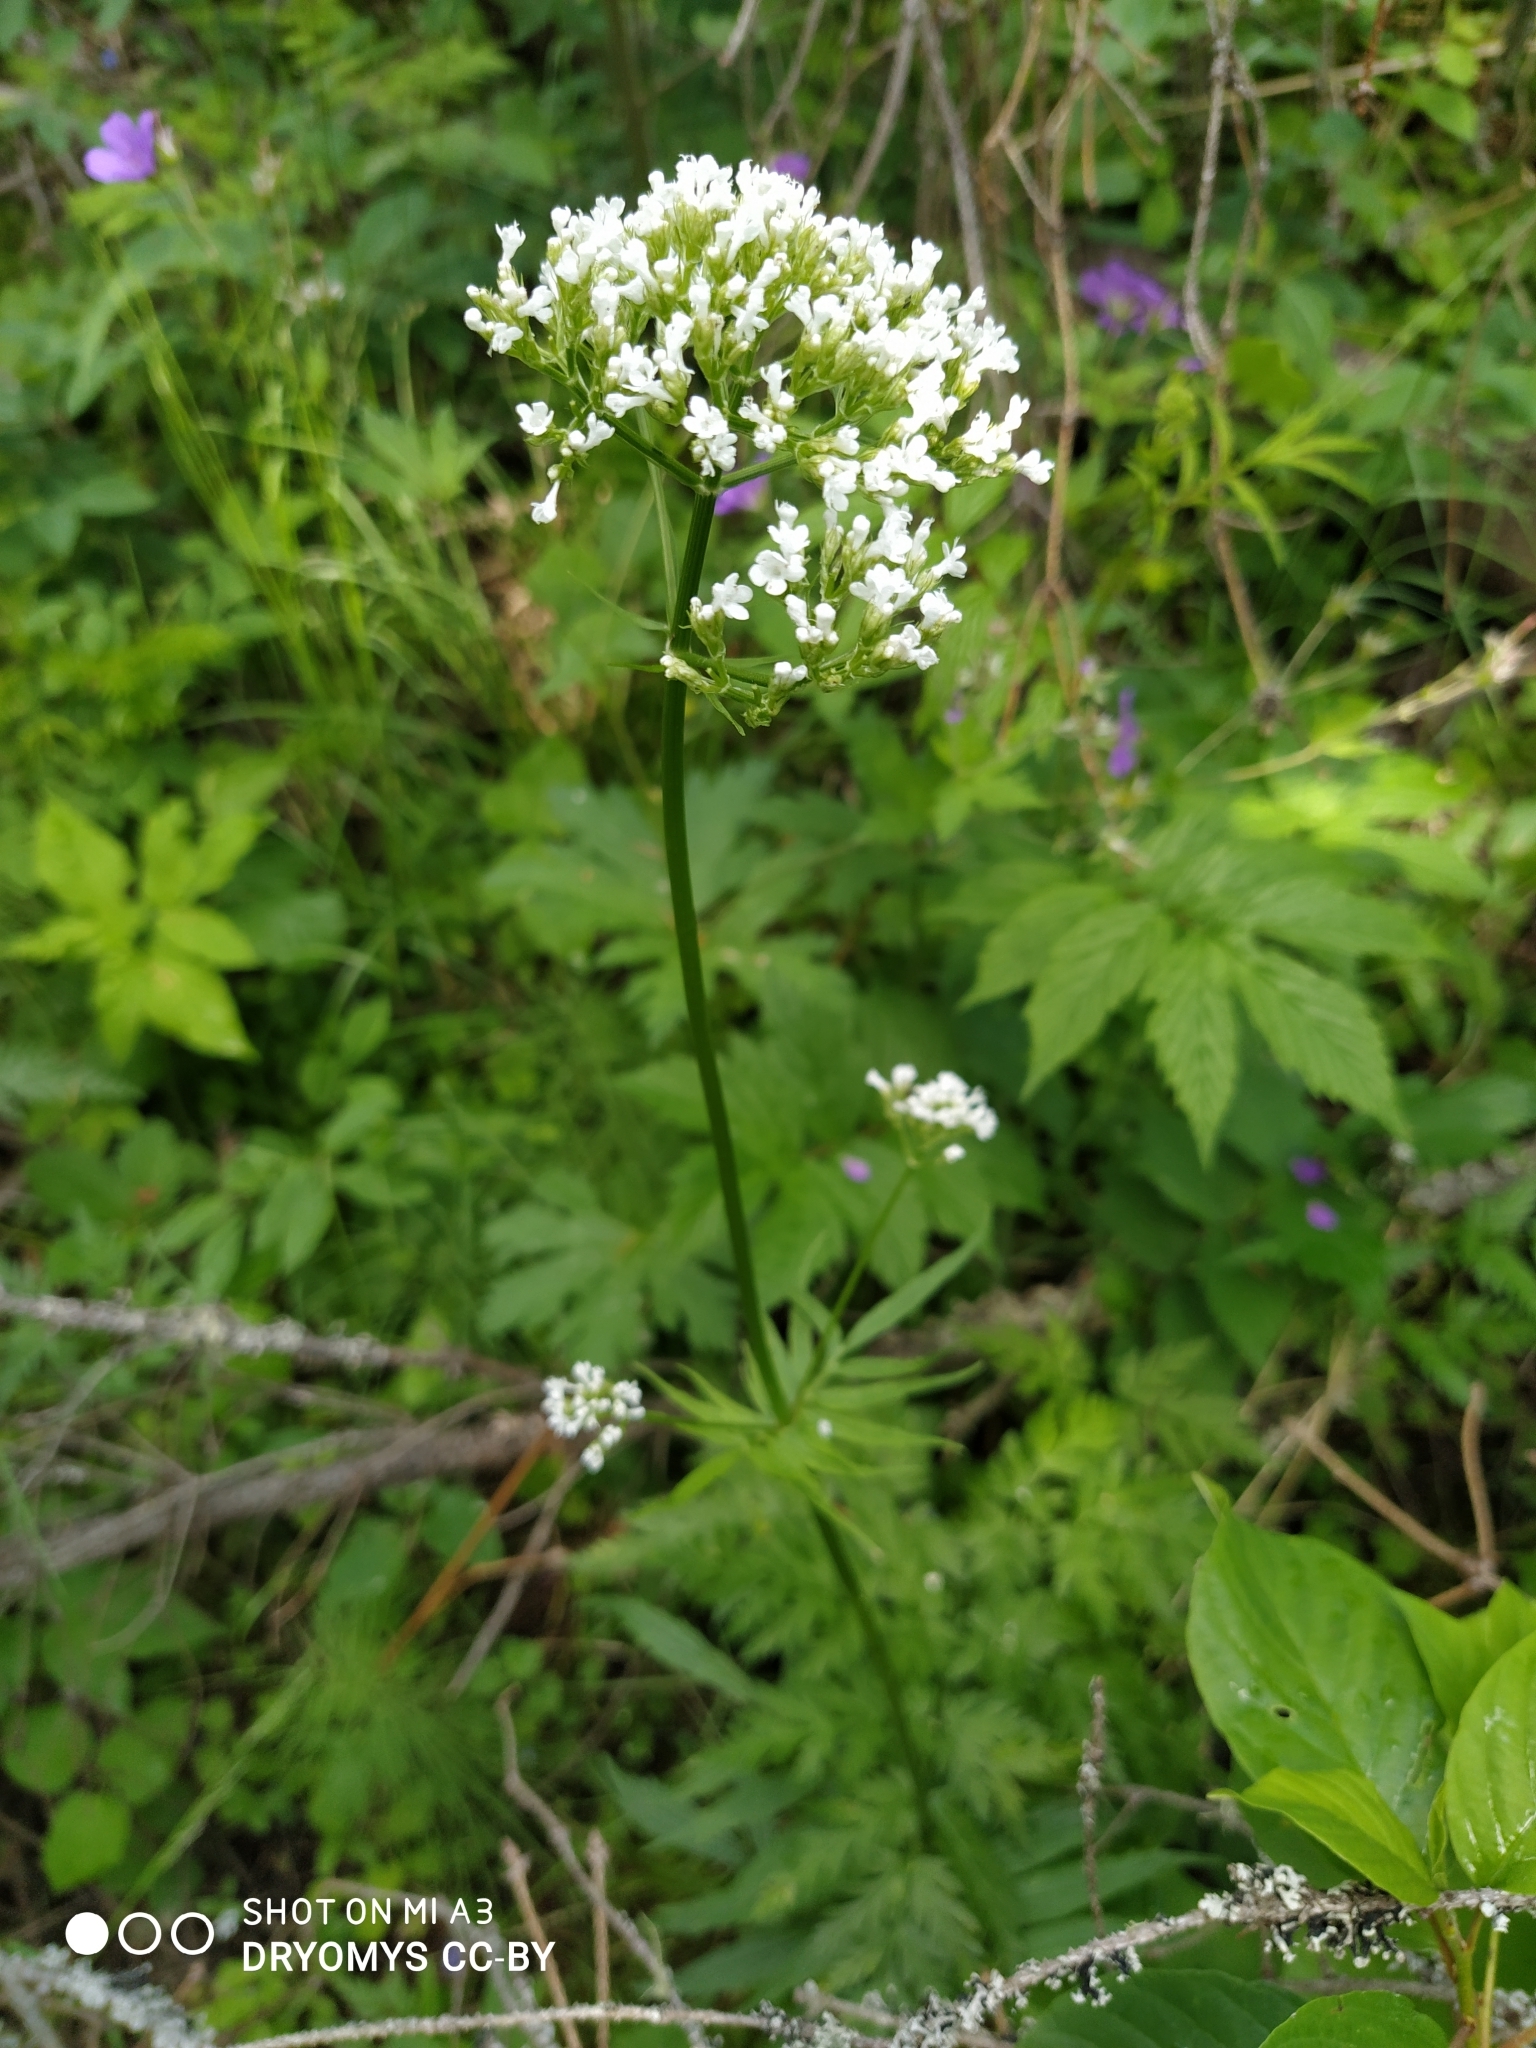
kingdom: Plantae
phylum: Tracheophyta
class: Magnoliopsida
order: Dipsacales
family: Caprifoliaceae
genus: Valeriana
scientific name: Valeriana officinalis
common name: Common valerian
